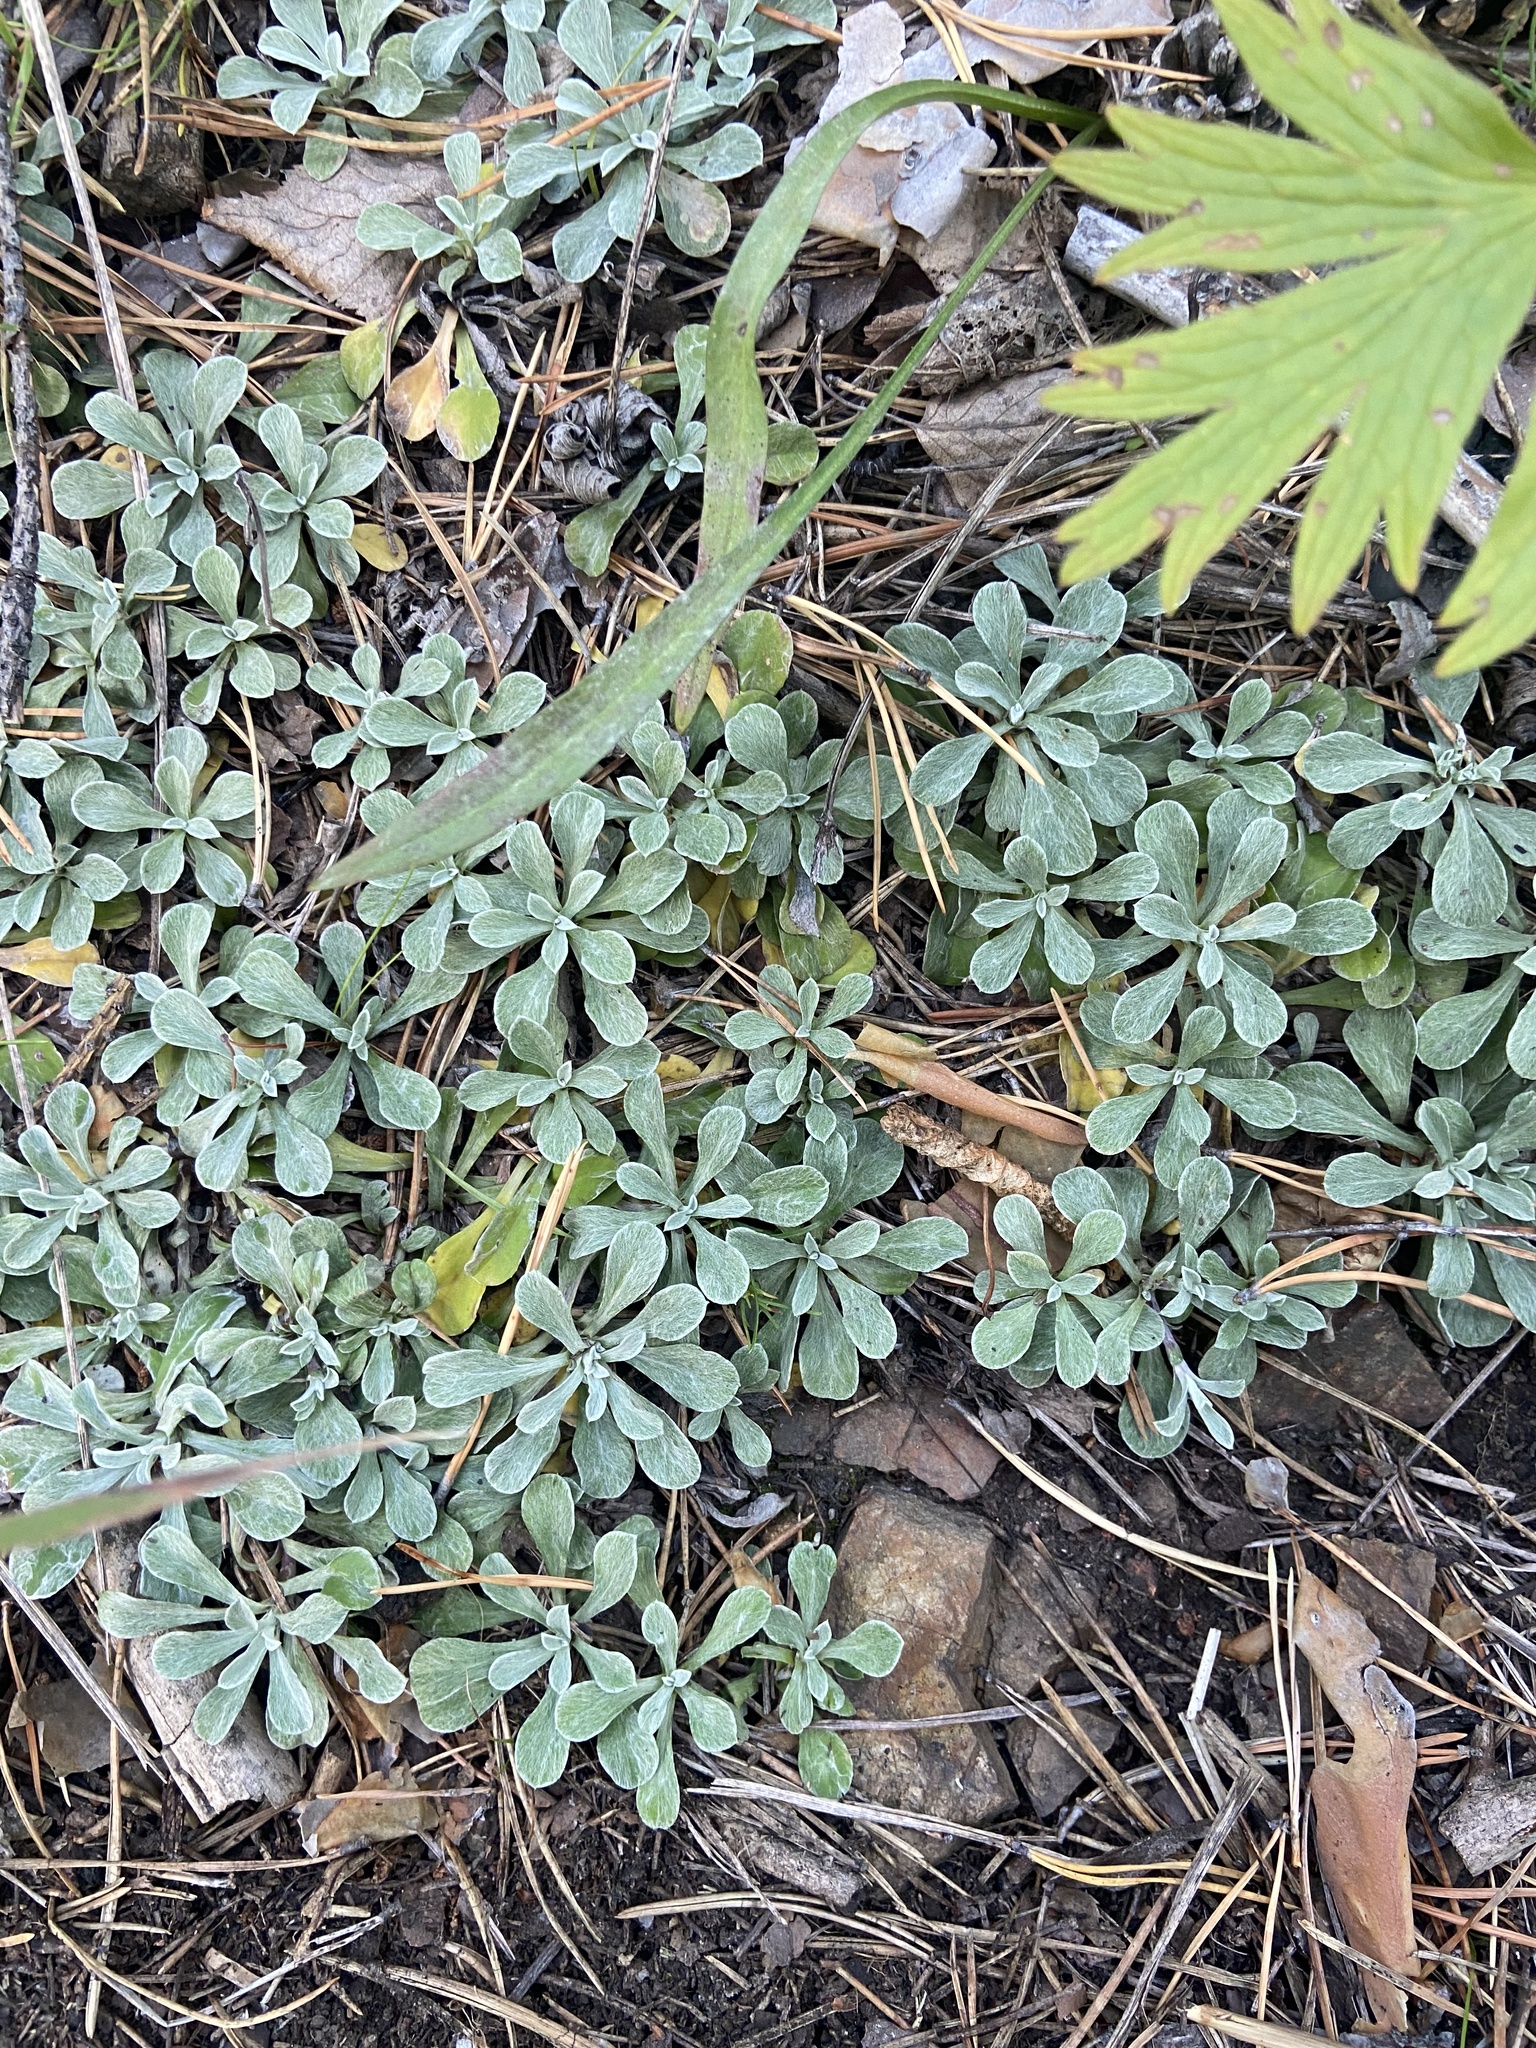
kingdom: Plantae
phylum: Tracheophyta
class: Magnoliopsida
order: Asterales
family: Asteraceae
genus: Antennaria
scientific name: Antennaria dioica
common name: Mountain everlasting
